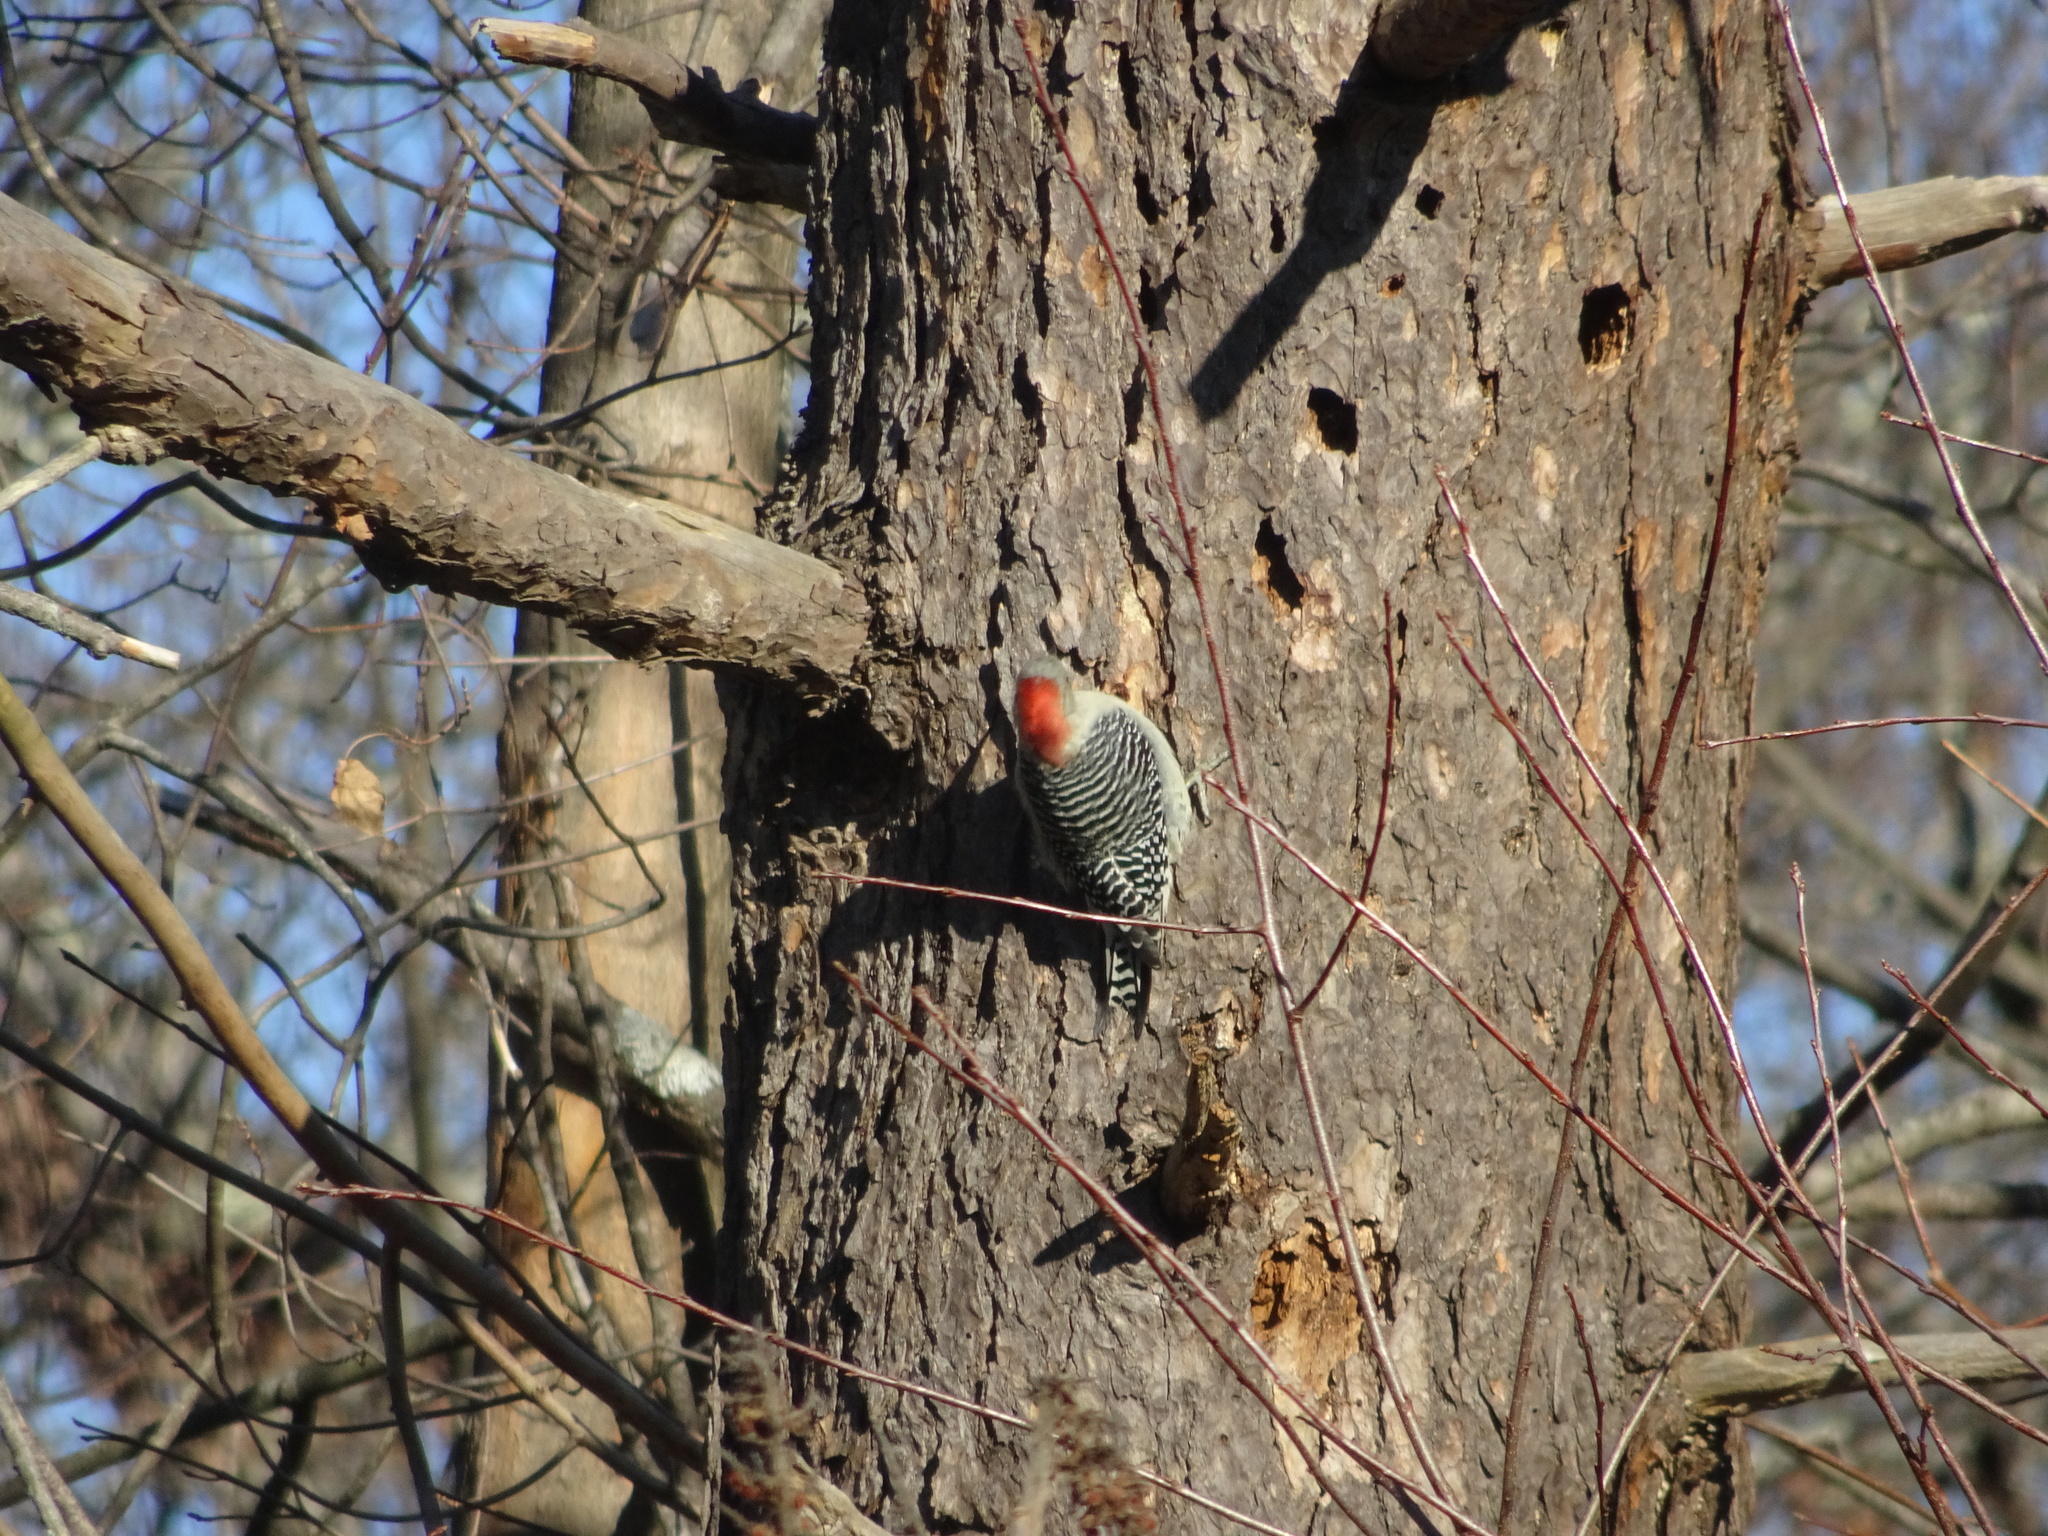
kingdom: Animalia
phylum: Chordata
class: Aves
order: Piciformes
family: Picidae
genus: Melanerpes
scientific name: Melanerpes carolinus
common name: Red-bellied woodpecker
